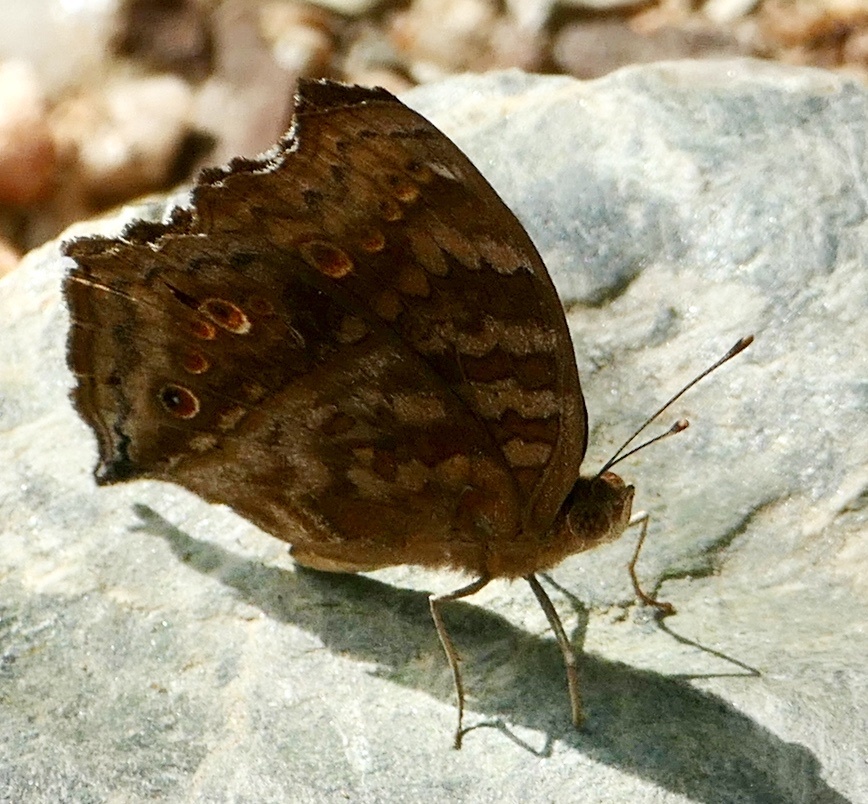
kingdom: Animalia
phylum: Arthropoda
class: Insecta
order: Lepidoptera
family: Nymphalidae
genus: Junonia
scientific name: Junonia chorimene
